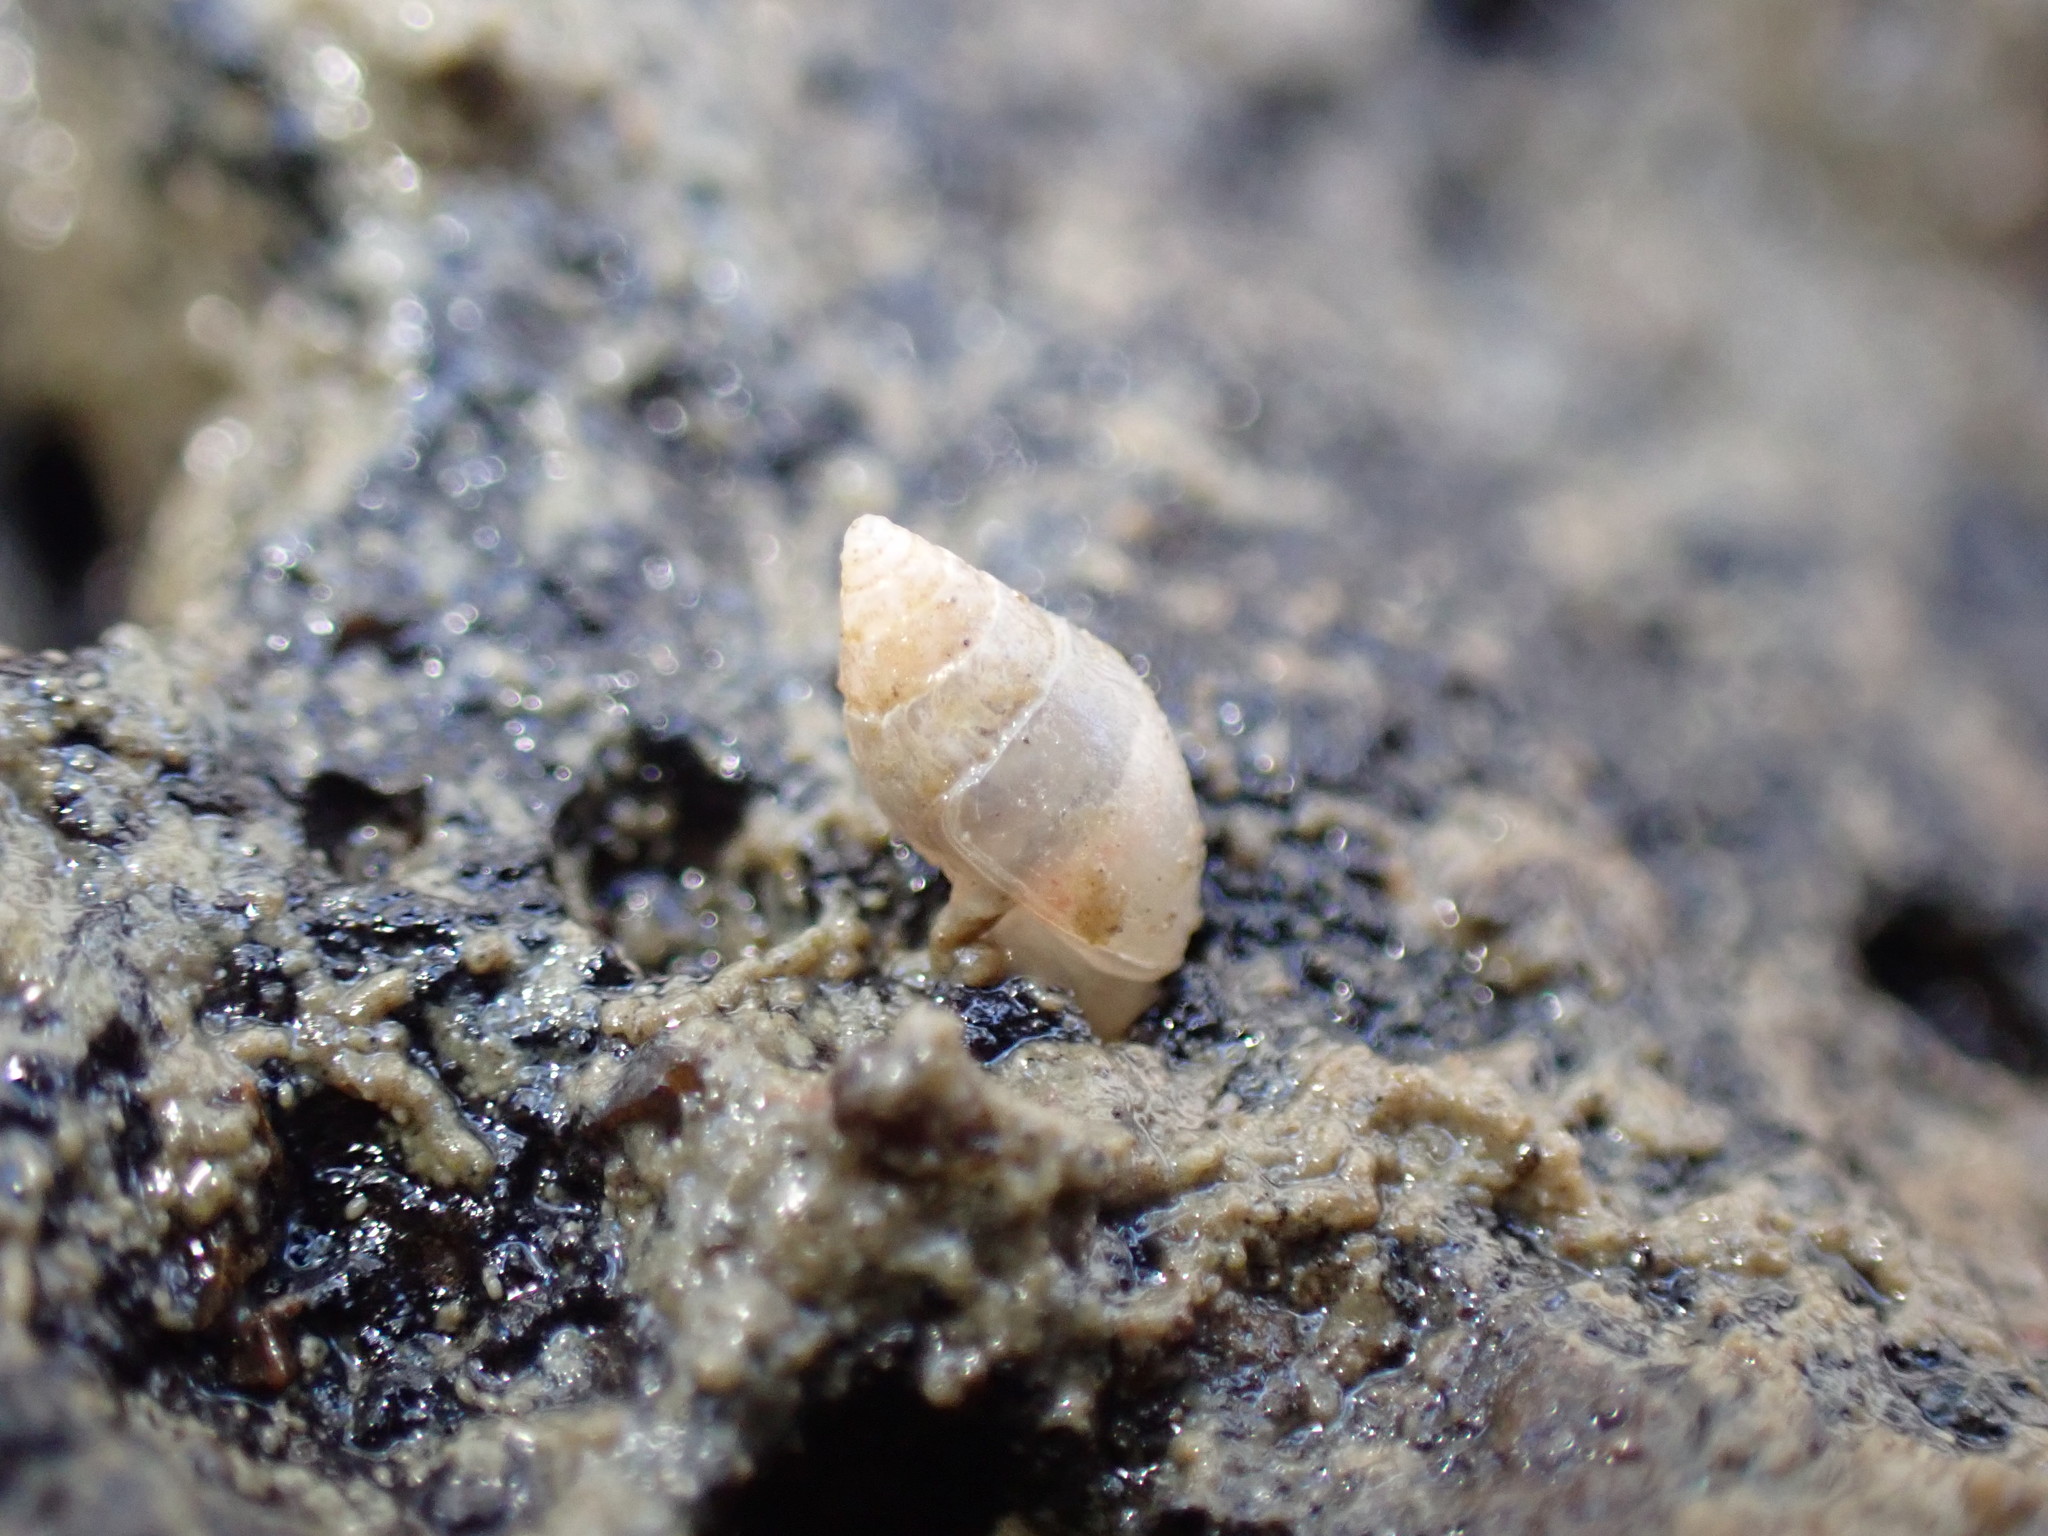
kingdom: Animalia
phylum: Mollusca
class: Gastropoda
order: Ellobiida
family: Ellobiidae
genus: Leuconopsis
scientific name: Leuconopsis obsoleta
